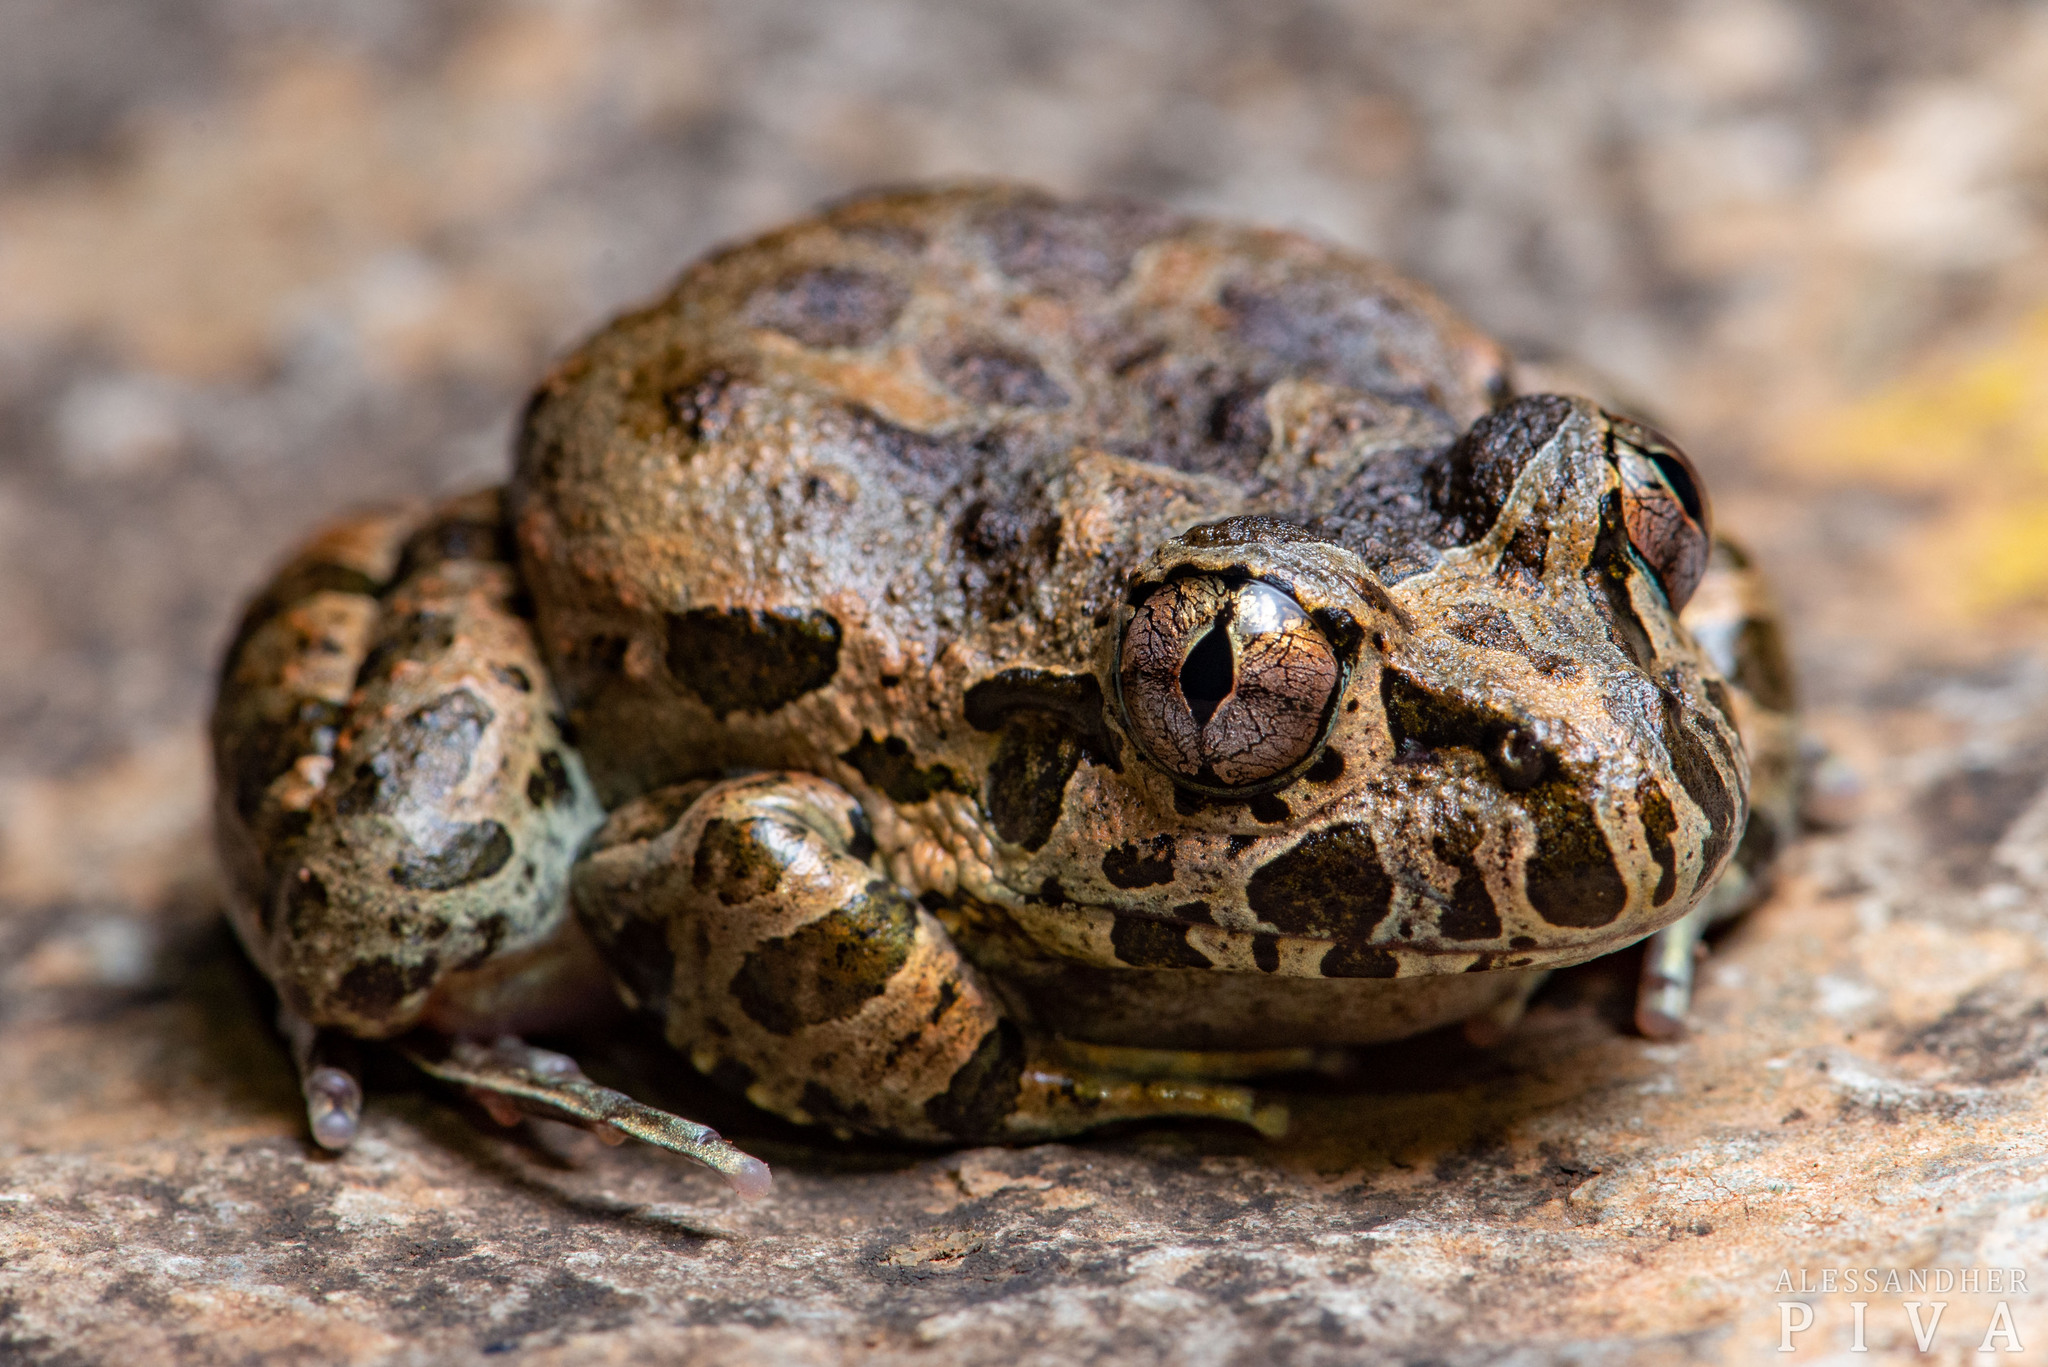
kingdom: Animalia
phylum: Chordata
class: Amphibia
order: Anura
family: Alsodidae
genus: Limnomedusa
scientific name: Limnomedusa macroglossa
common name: Rapids frog
